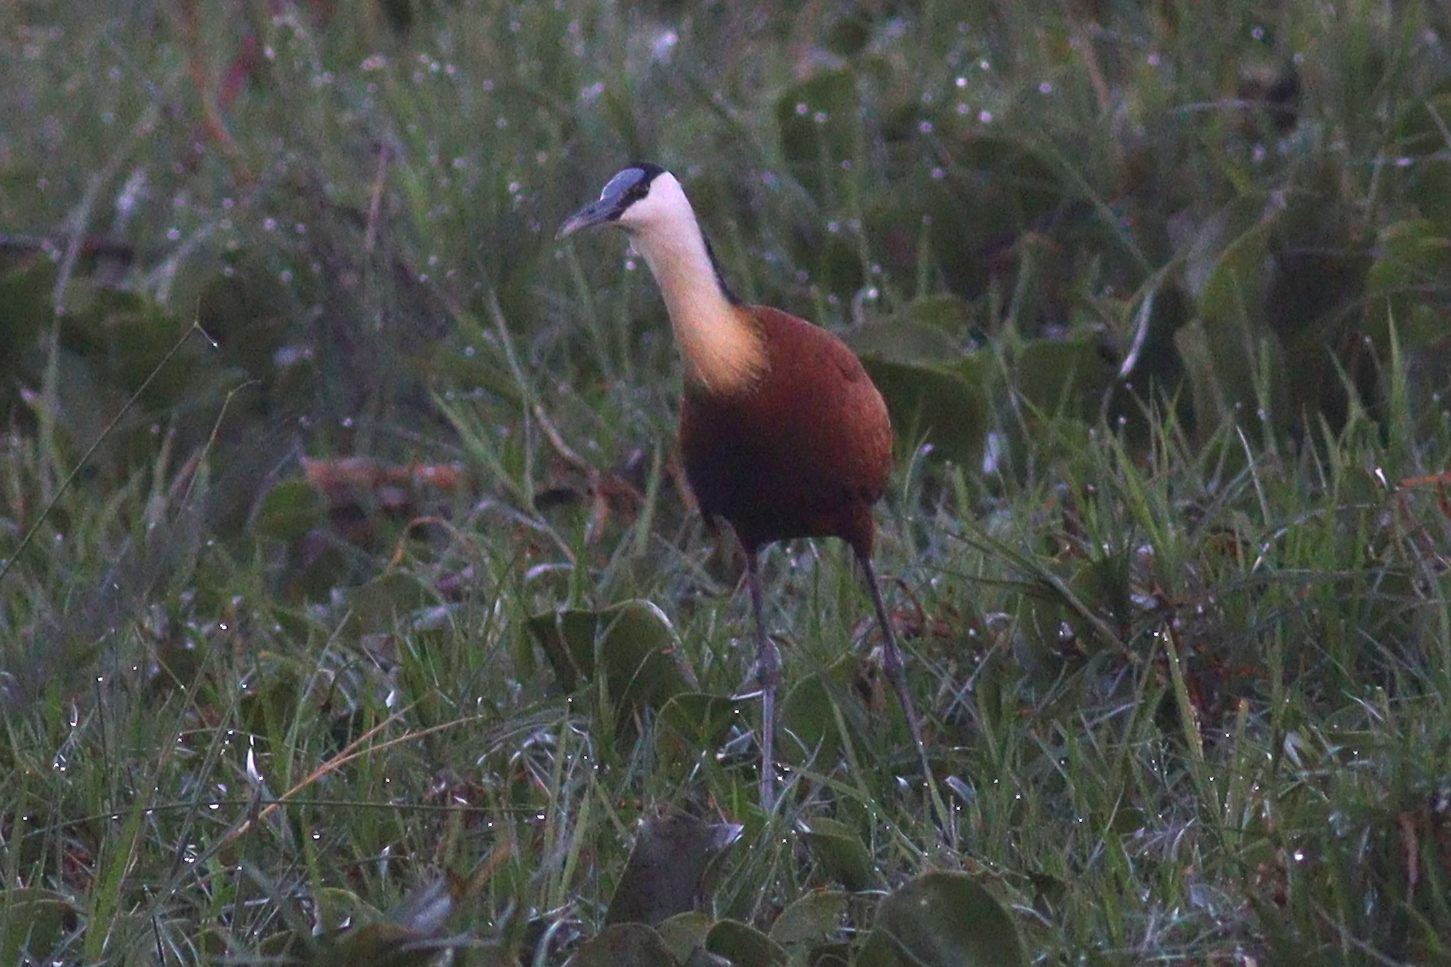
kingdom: Animalia
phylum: Chordata
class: Aves
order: Charadriiformes
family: Jacanidae
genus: Actophilornis
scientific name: Actophilornis africanus
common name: African jacana
